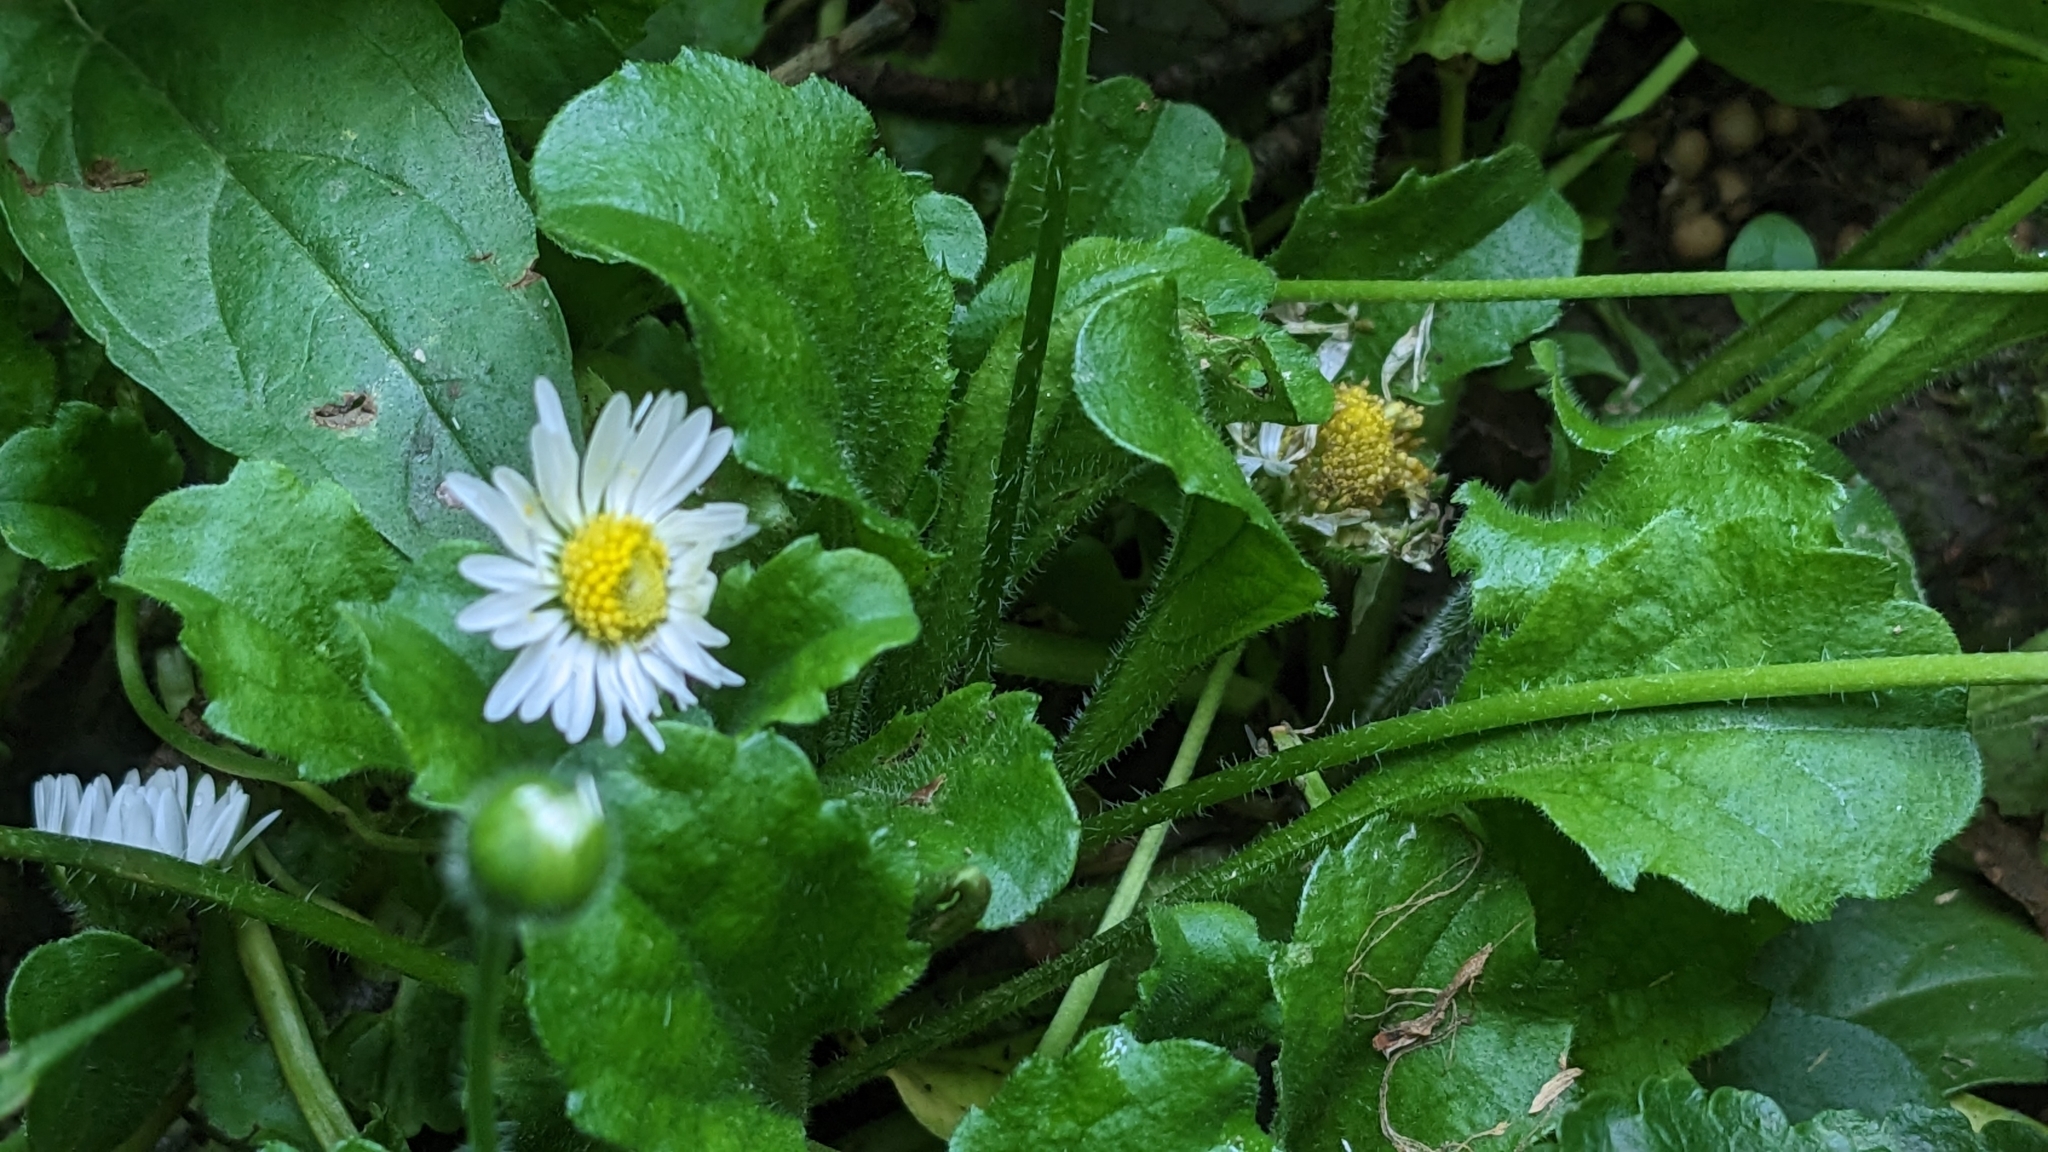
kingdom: Plantae
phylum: Tracheophyta
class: Magnoliopsida
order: Asterales
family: Asteraceae
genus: Bellis
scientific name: Bellis perennis
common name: Lawndaisy
